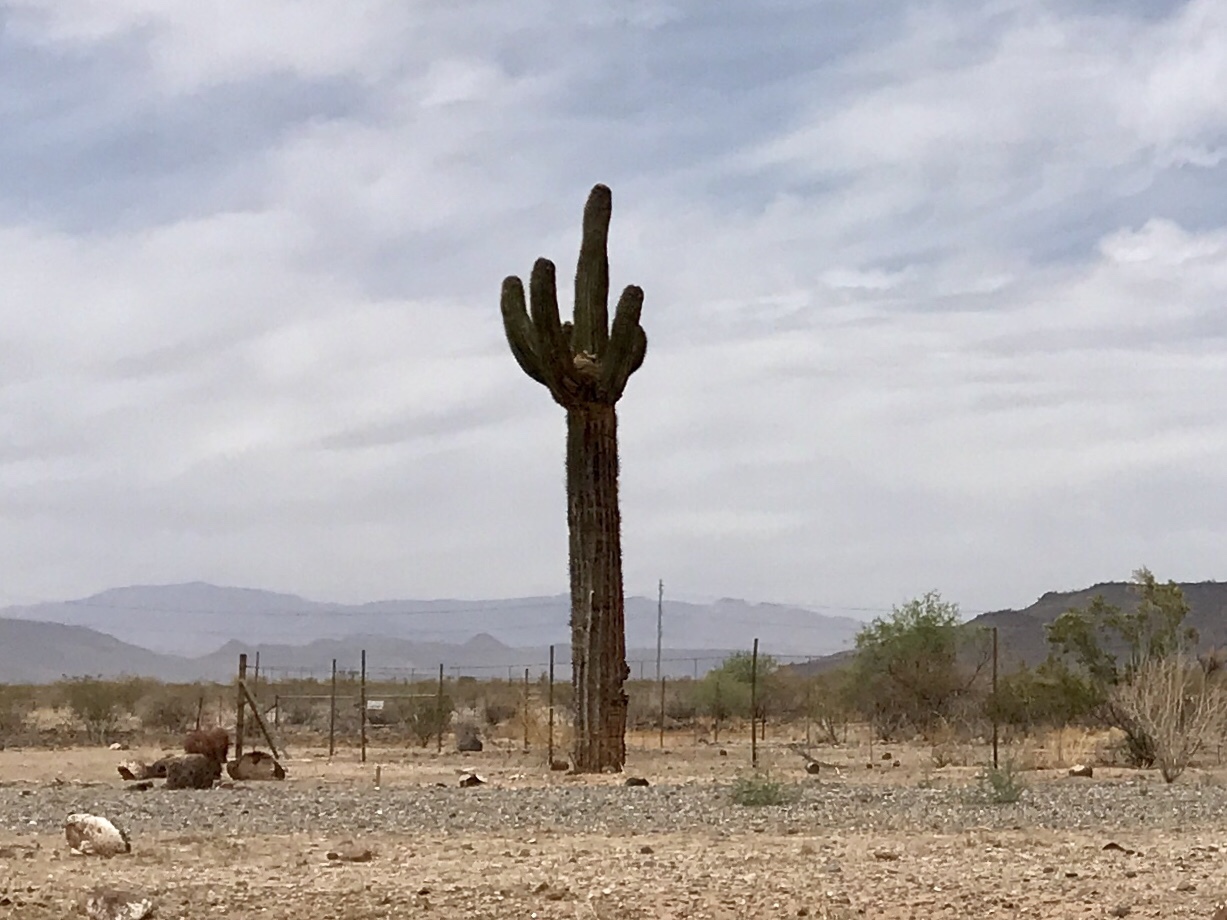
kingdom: Plantae
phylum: Tracheophyta
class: Magnoliopsida
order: Caryophyllales
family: Cactaceae
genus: Carnegiea
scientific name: Carnegiea gigantea
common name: Saguaro
